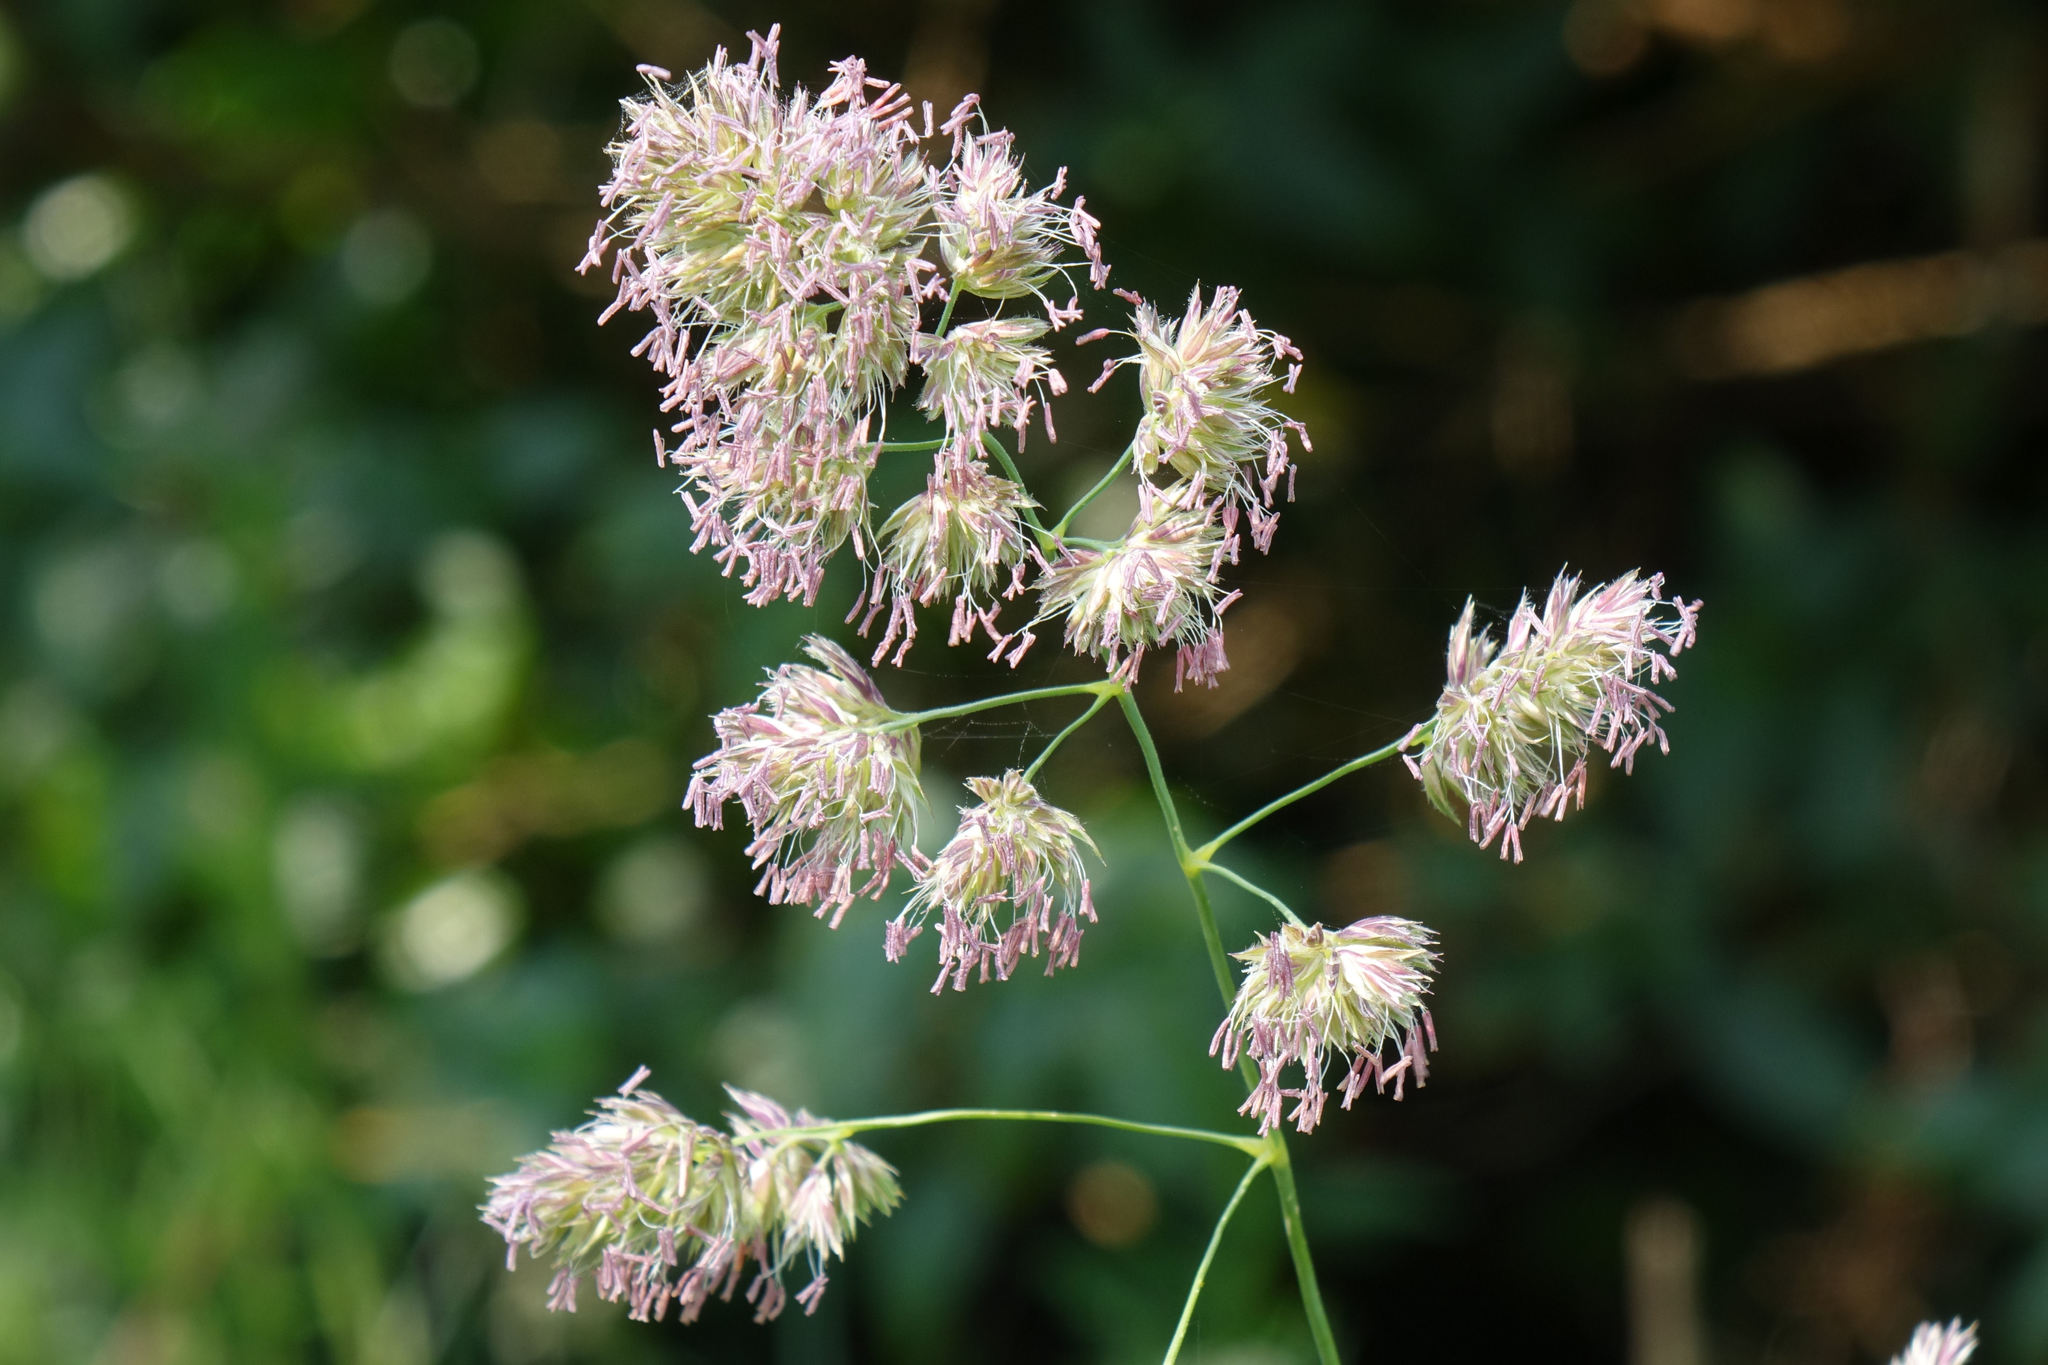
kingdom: Plantae
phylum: Tracheophyta
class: Liliopsida
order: Poales
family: Poaceae
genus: Dactylis
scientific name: Dactylis glomerata
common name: Orchardgrass
